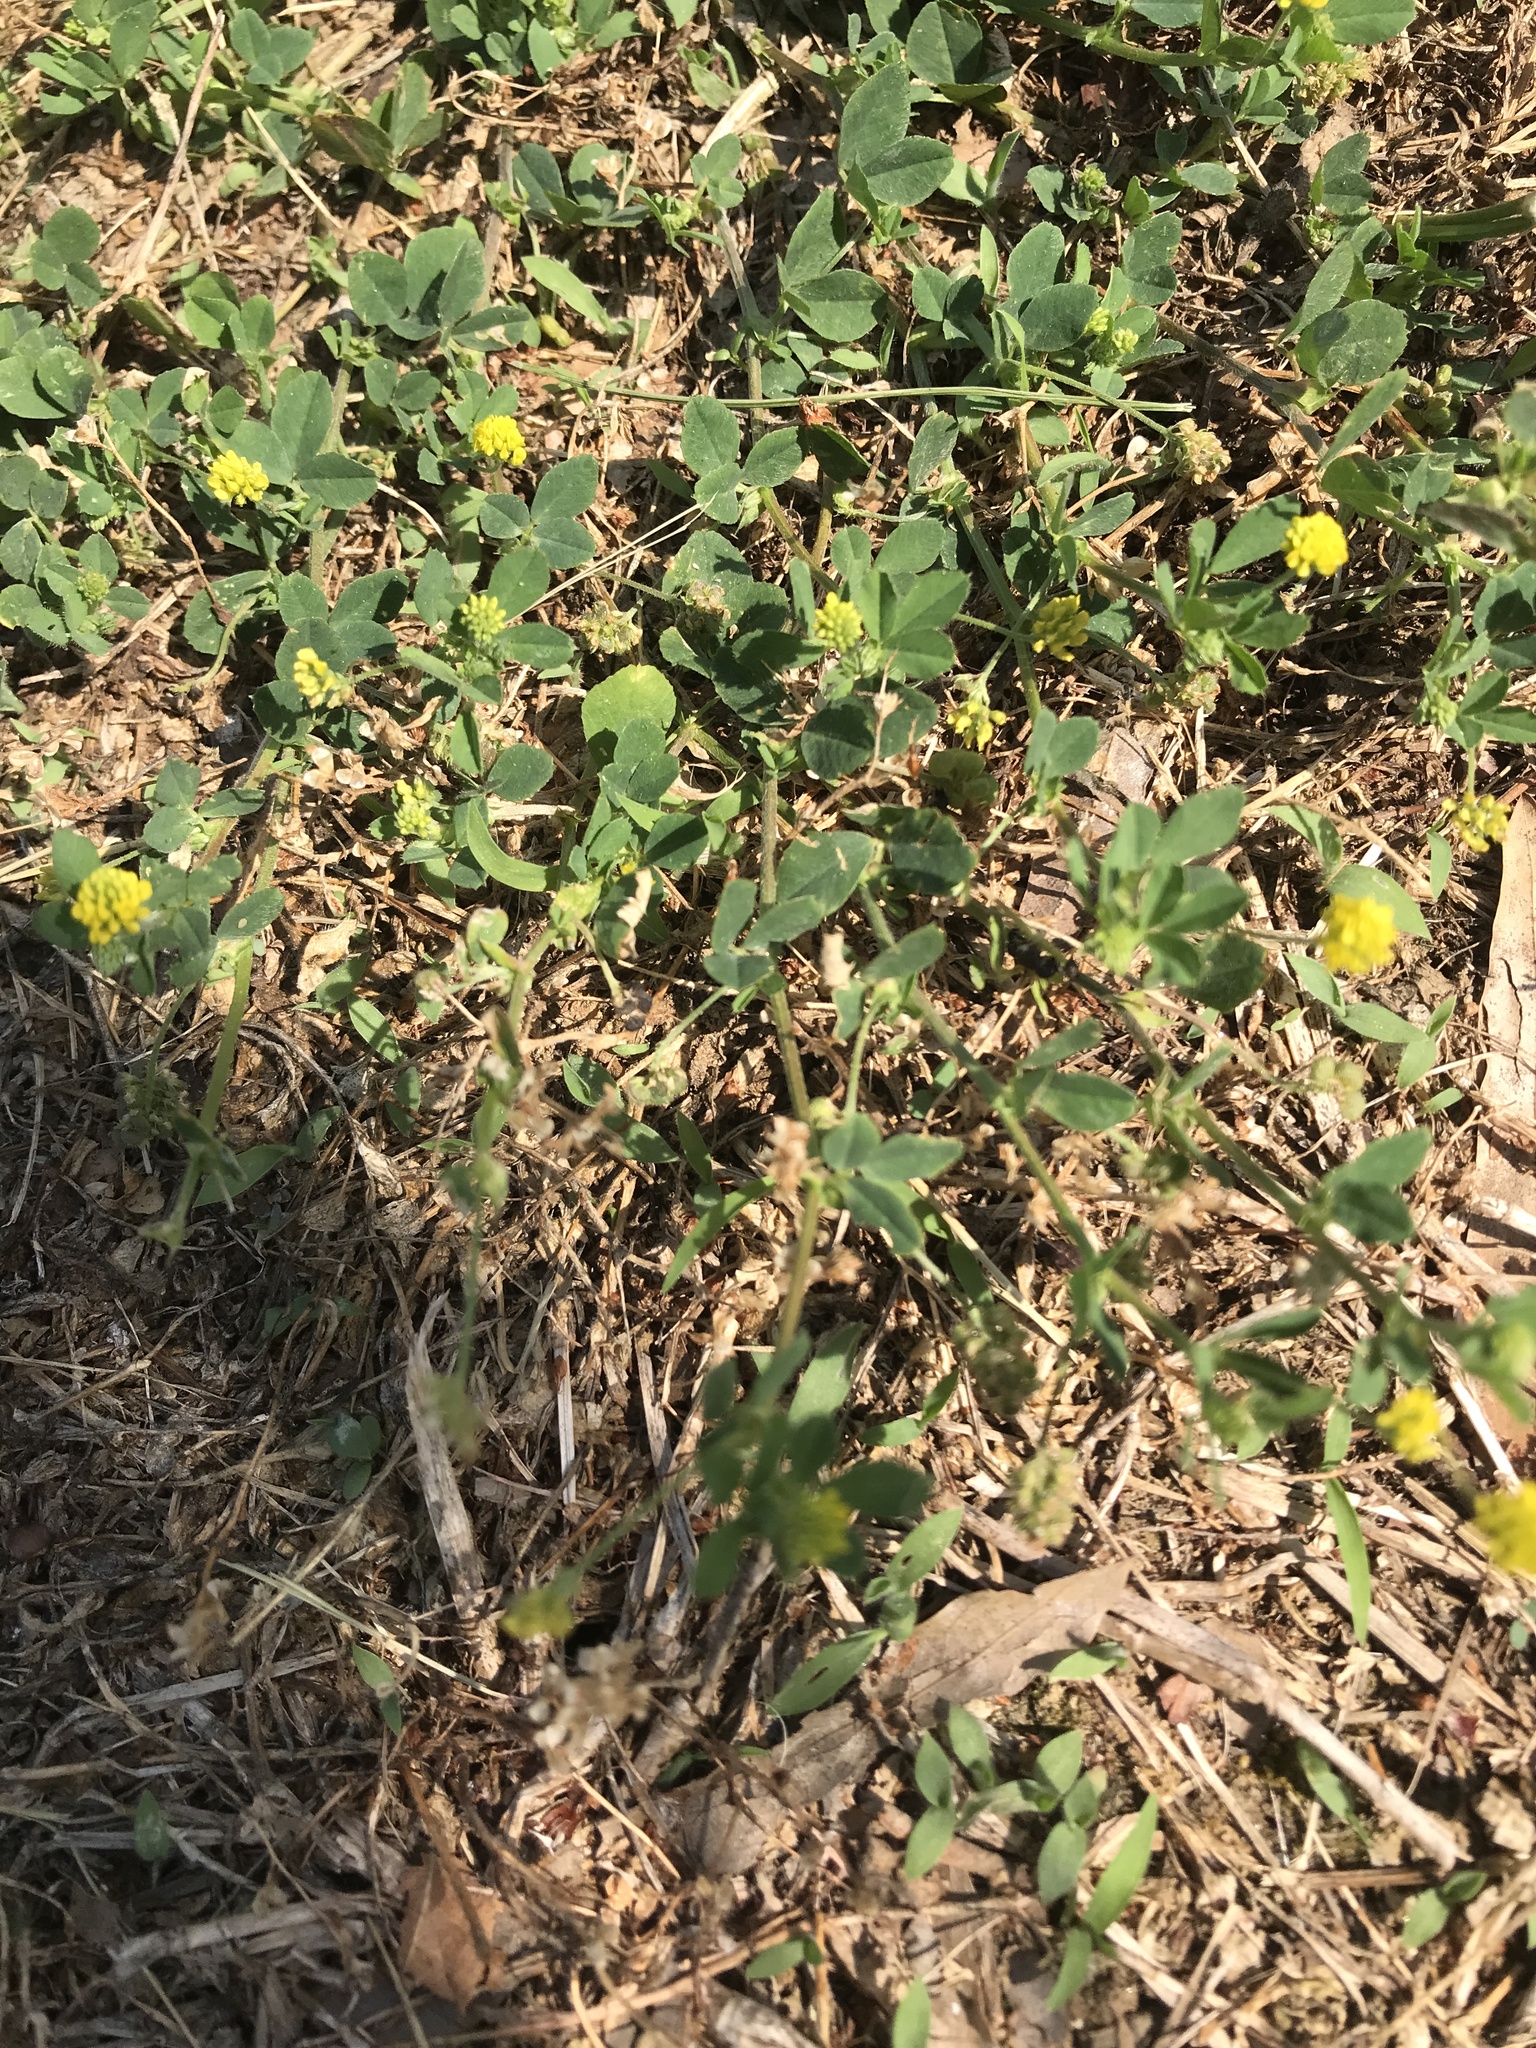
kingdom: Plantae
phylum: Tracheophyta
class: Magnoliopsida
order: Fabales
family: Fabaceae
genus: Medicago
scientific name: Medicago lupulina
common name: Black medick
